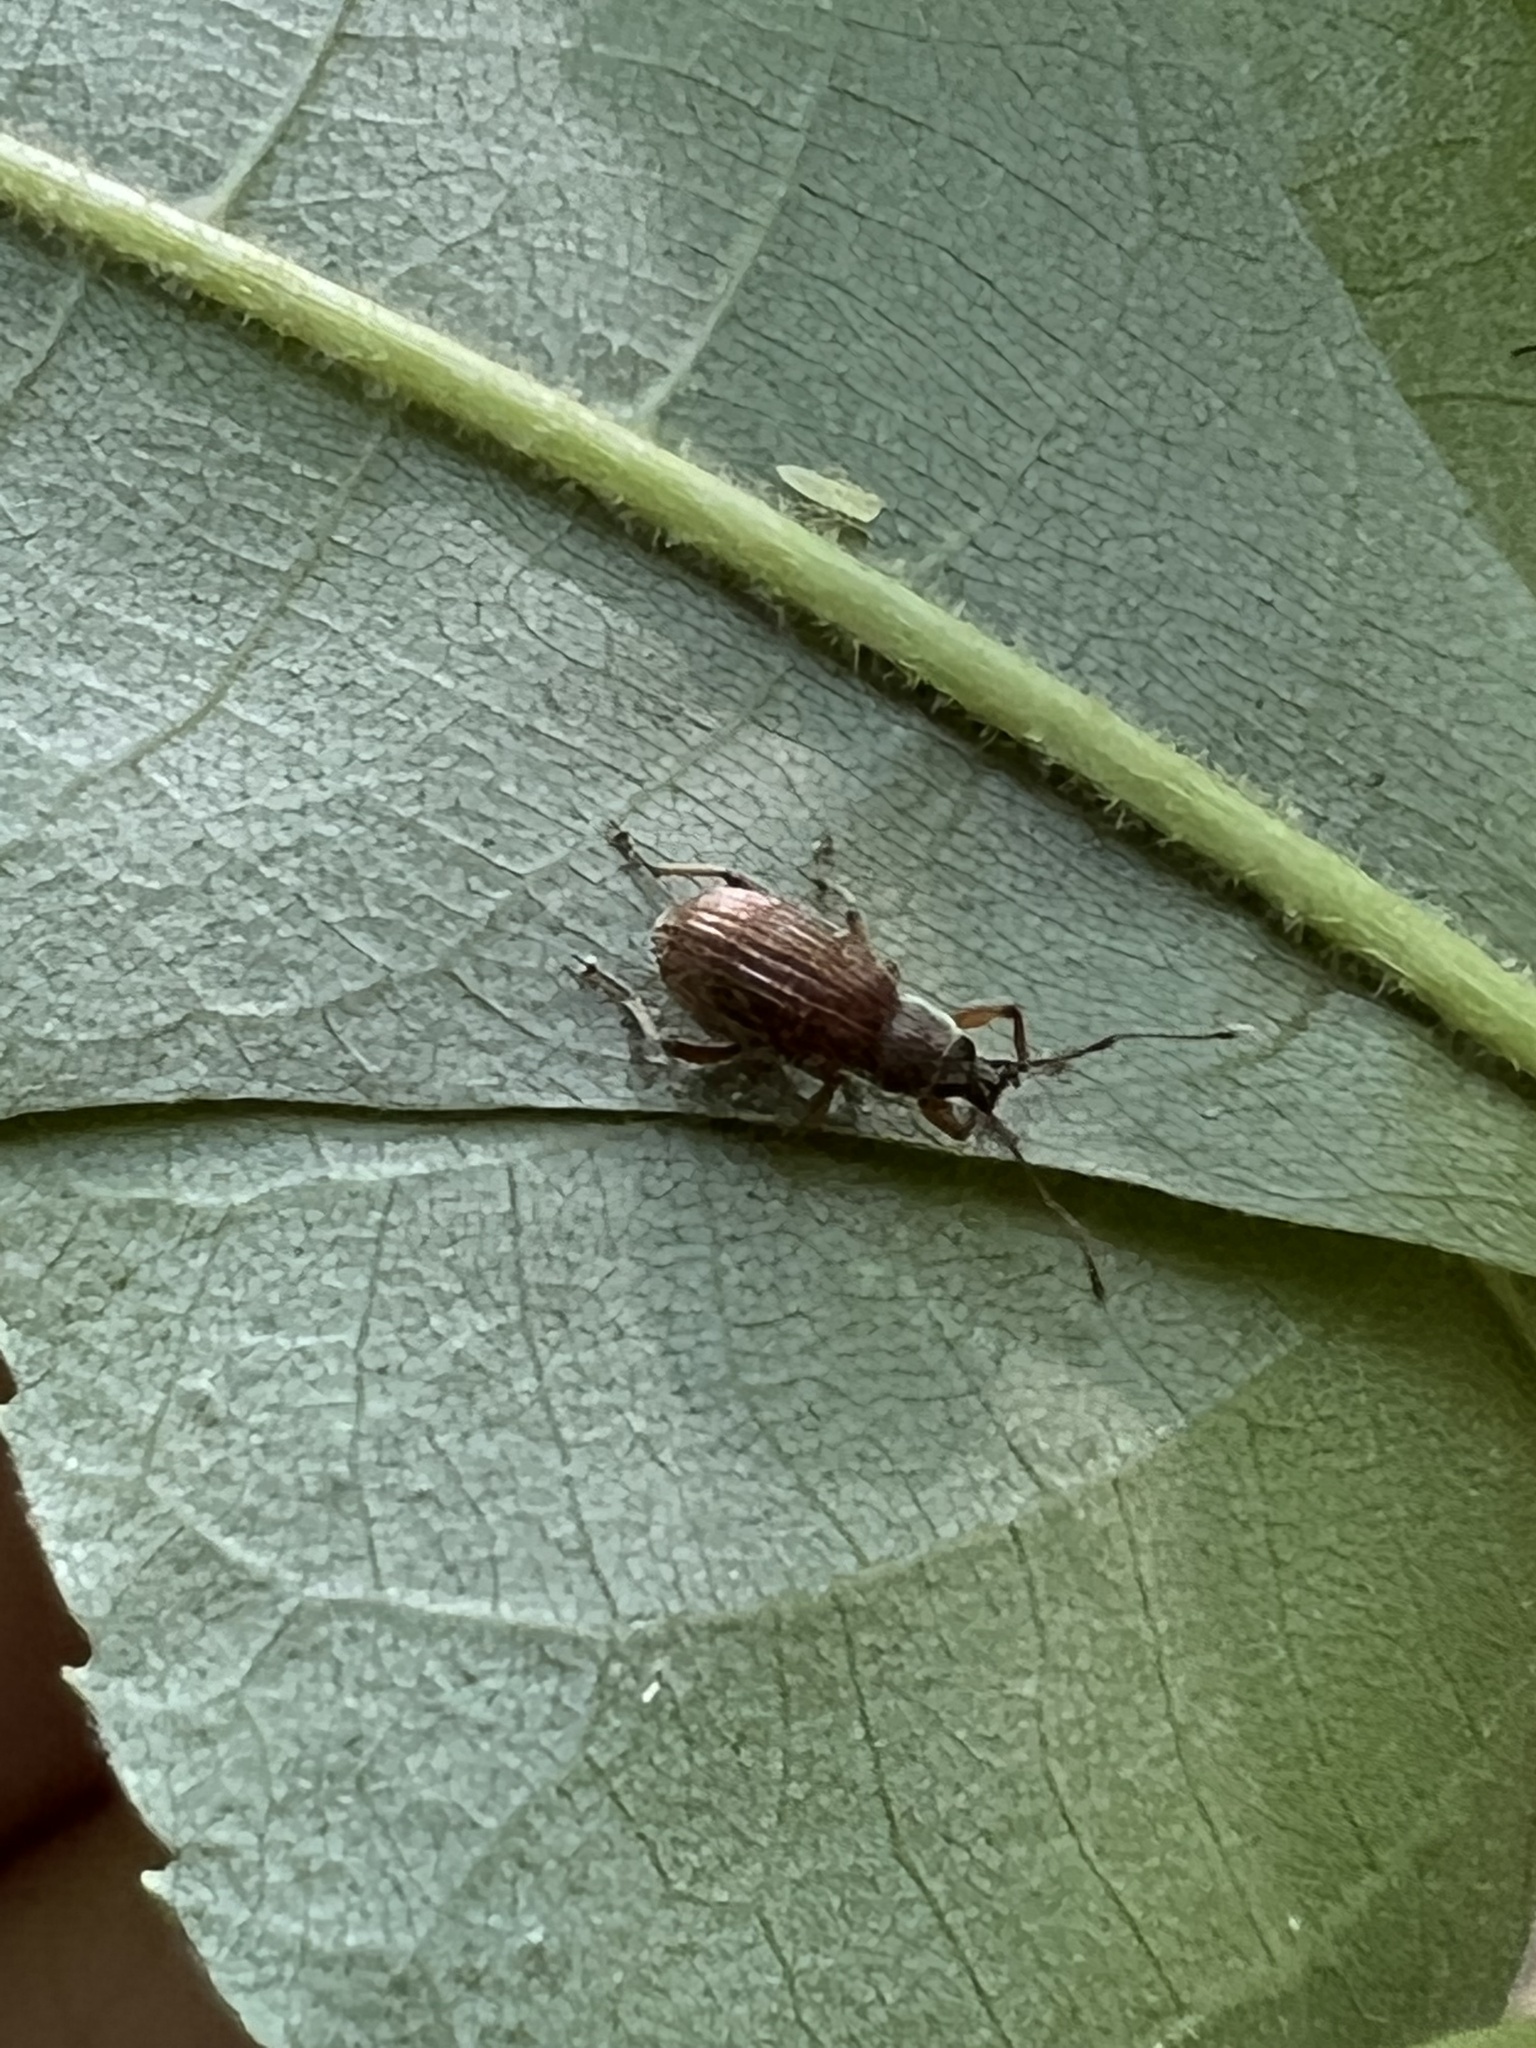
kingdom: Animalia
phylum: Arthropoda
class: Insecta
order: Coleoptera
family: Curculionidae
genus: Cyrtepistomus
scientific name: Cyrtepistomus castaneus
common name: Weevil
